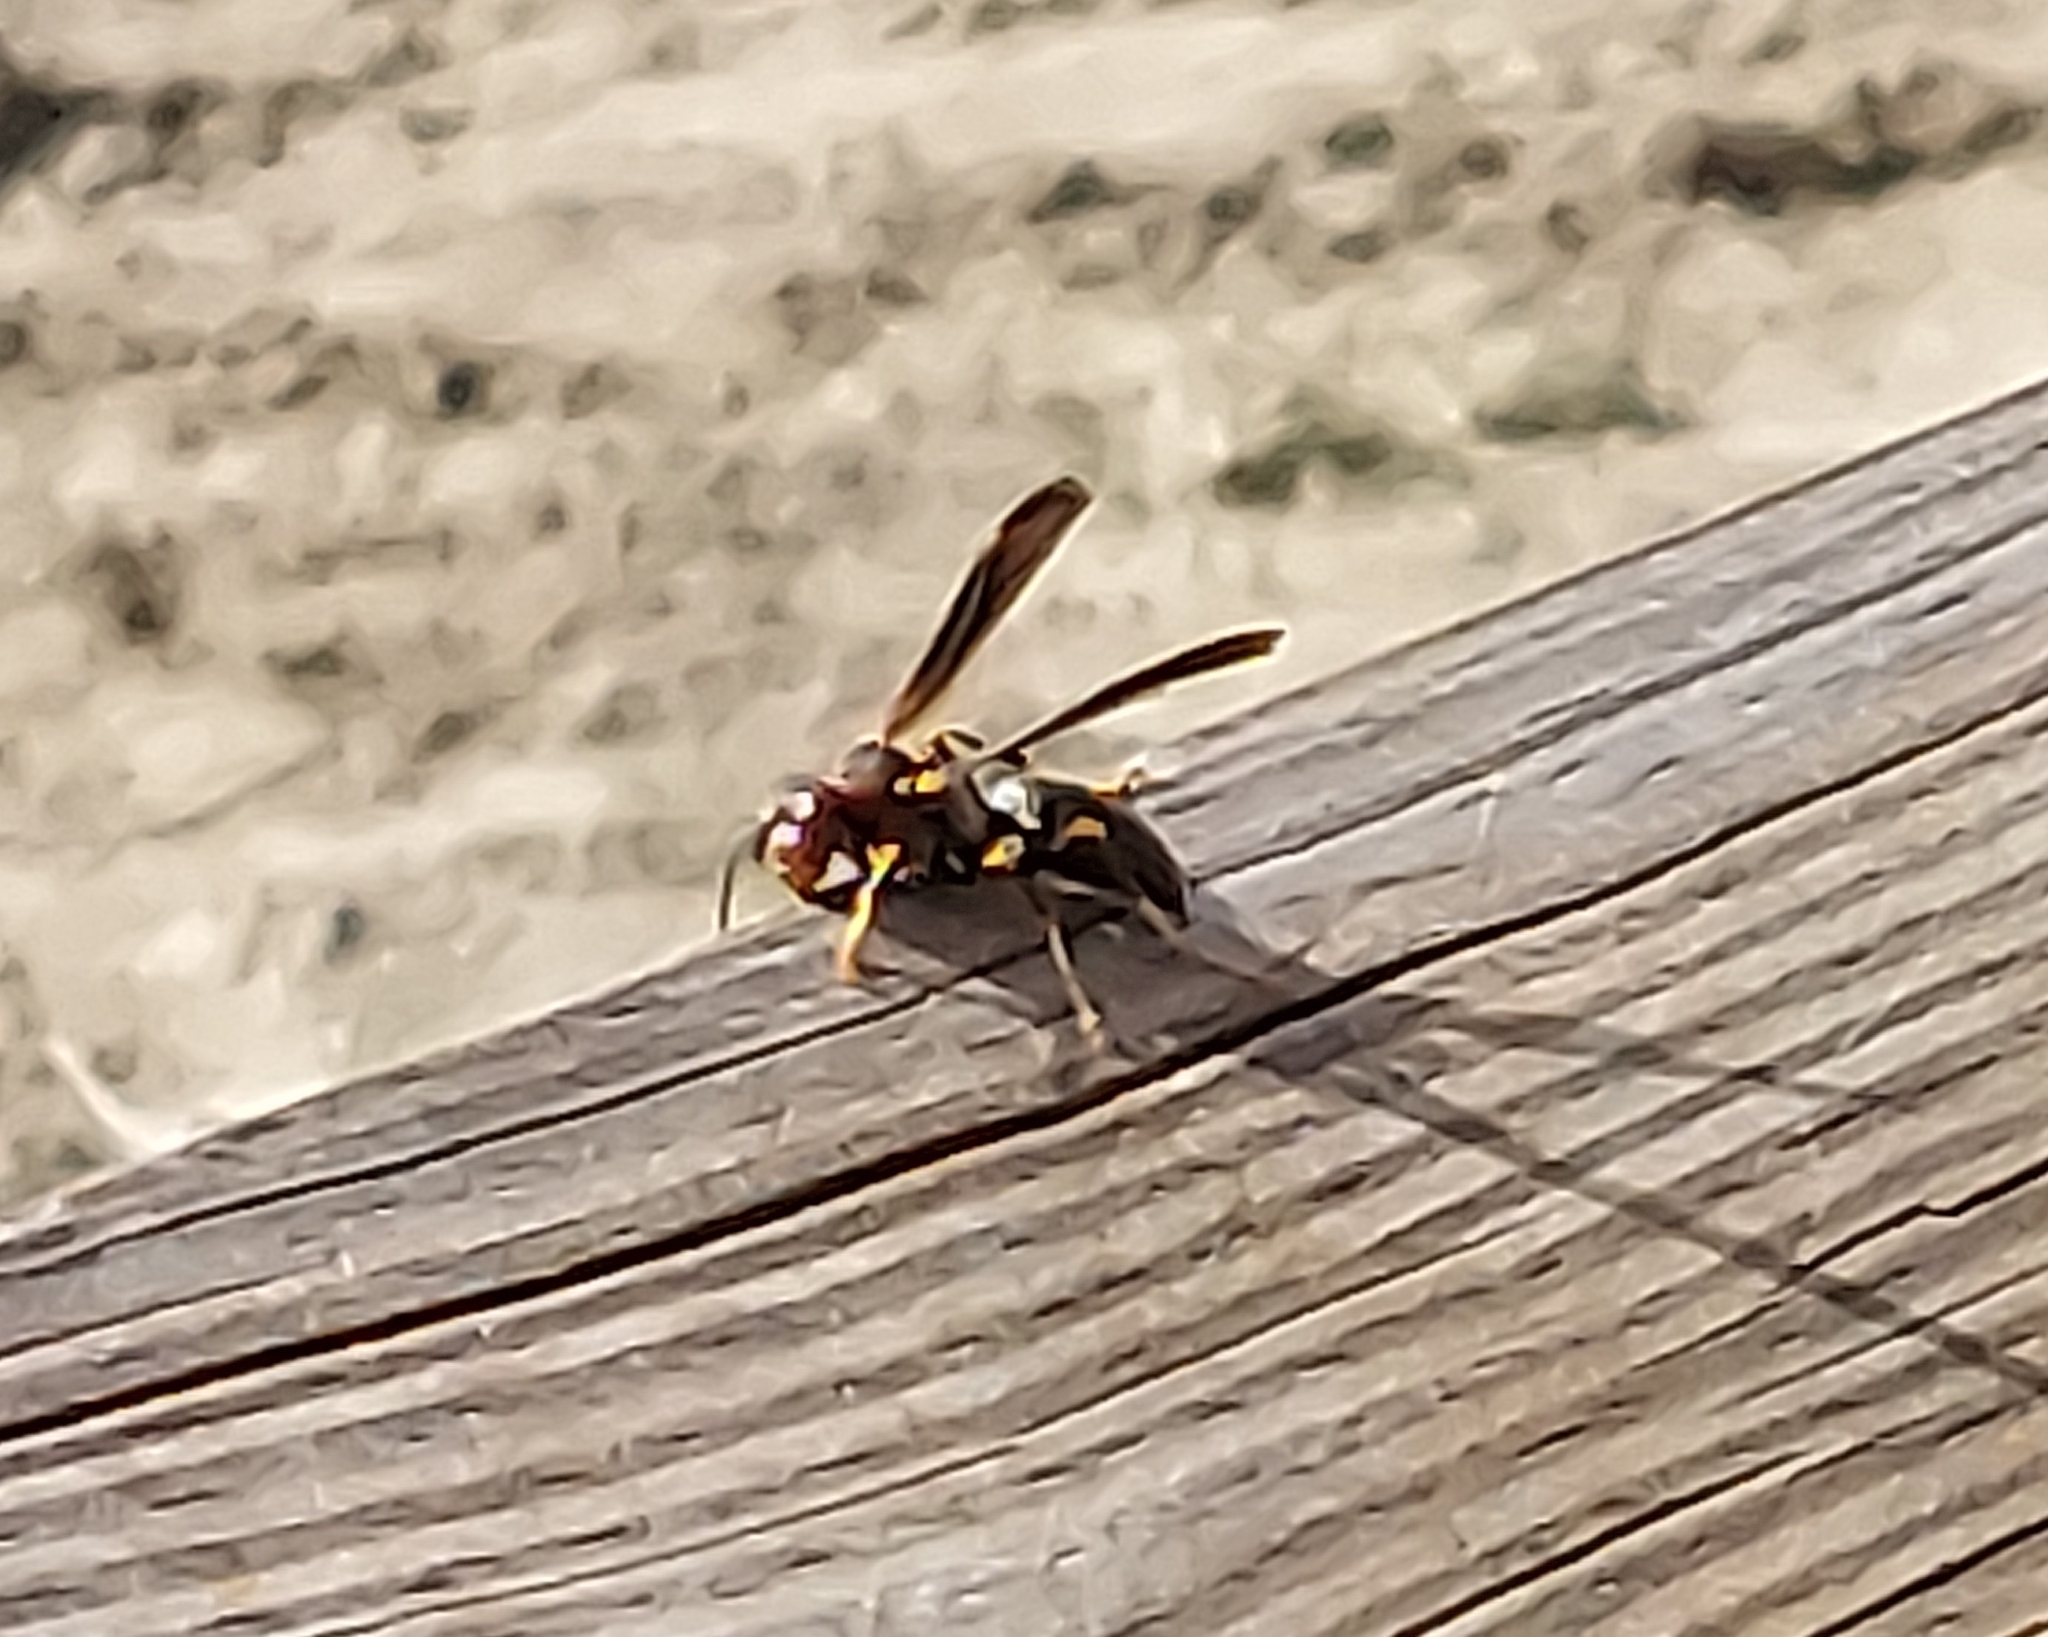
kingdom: Animalia
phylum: Arthropoda
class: Insecta
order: Hymenoptera
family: Eumenidae
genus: Polistes
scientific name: Polistes metricus
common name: Metric paper wasp
